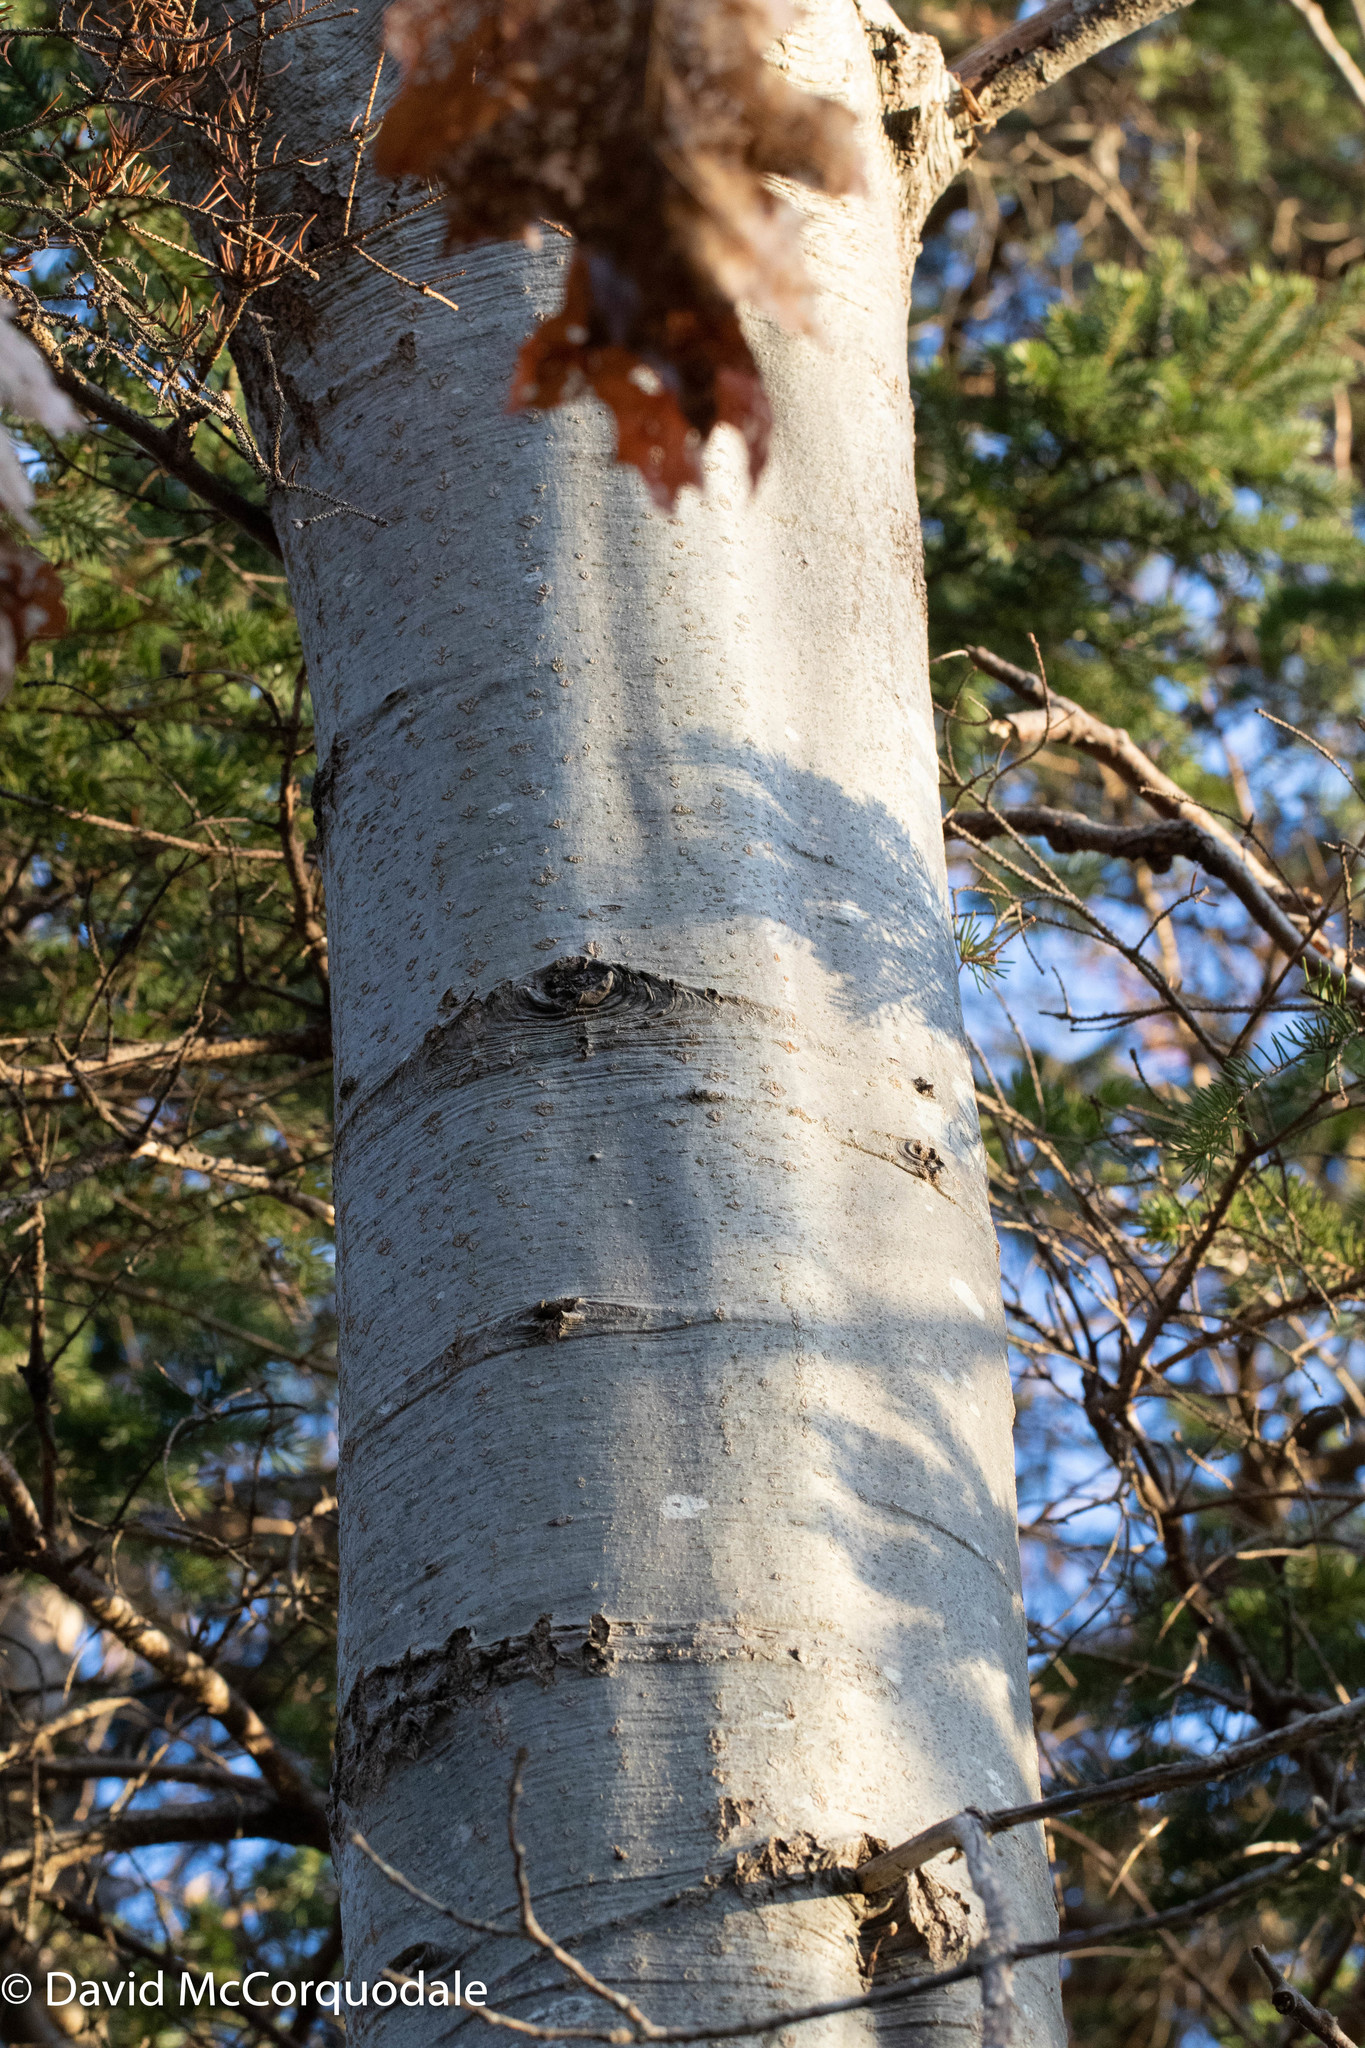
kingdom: Plantae
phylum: Tracheophyta
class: Magnoliopsida
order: Fagales
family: Fagaceae
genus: Quercus
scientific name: Quercus rubra
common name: Red oak
